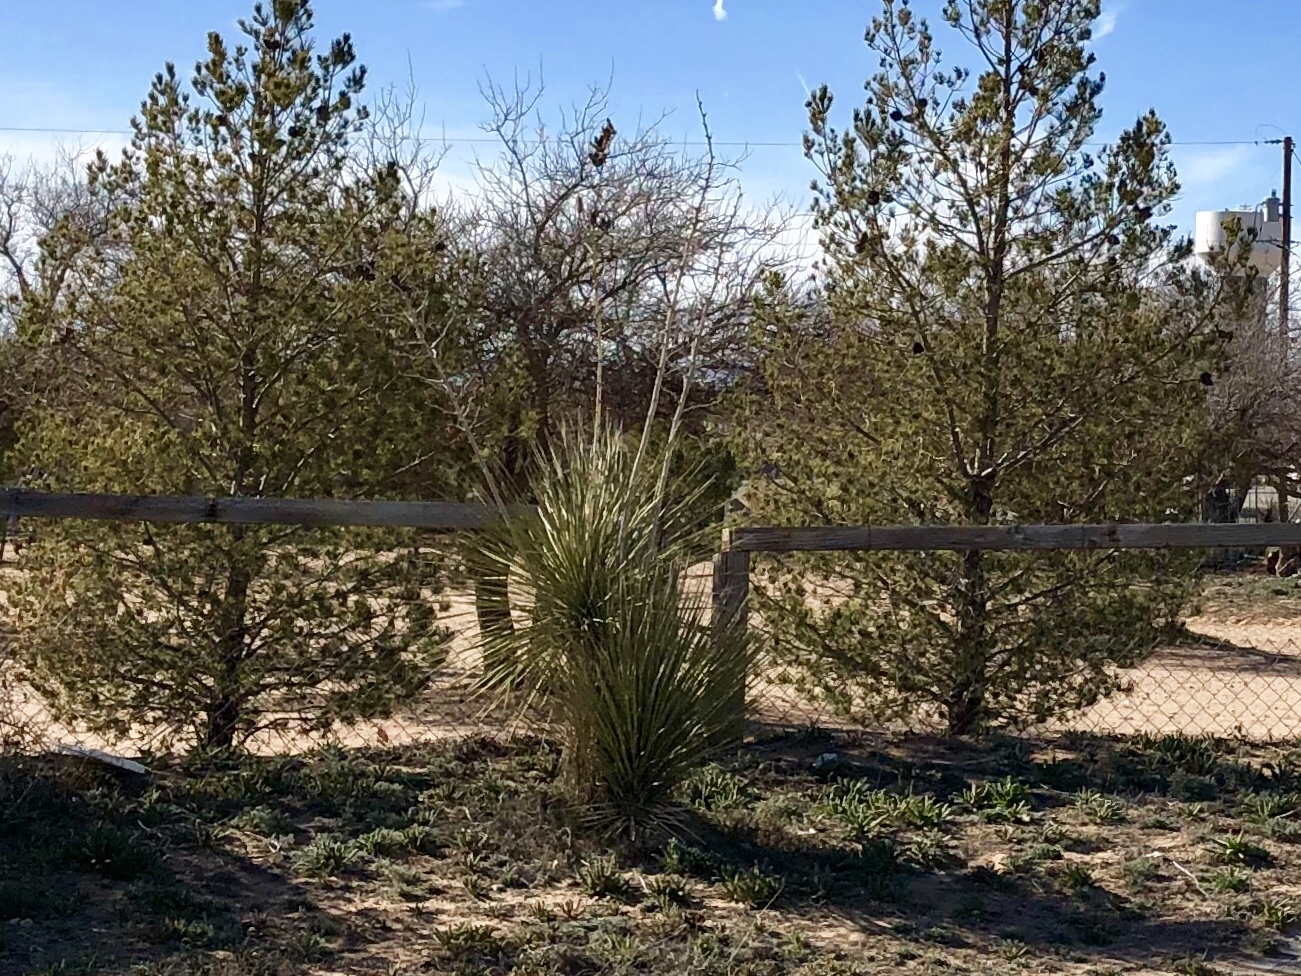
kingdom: Plantae
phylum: Tracheophyta
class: Liliopsida
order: Asparagales
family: Asparagaceae
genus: Yucca
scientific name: Yucca elata
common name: Palmella
